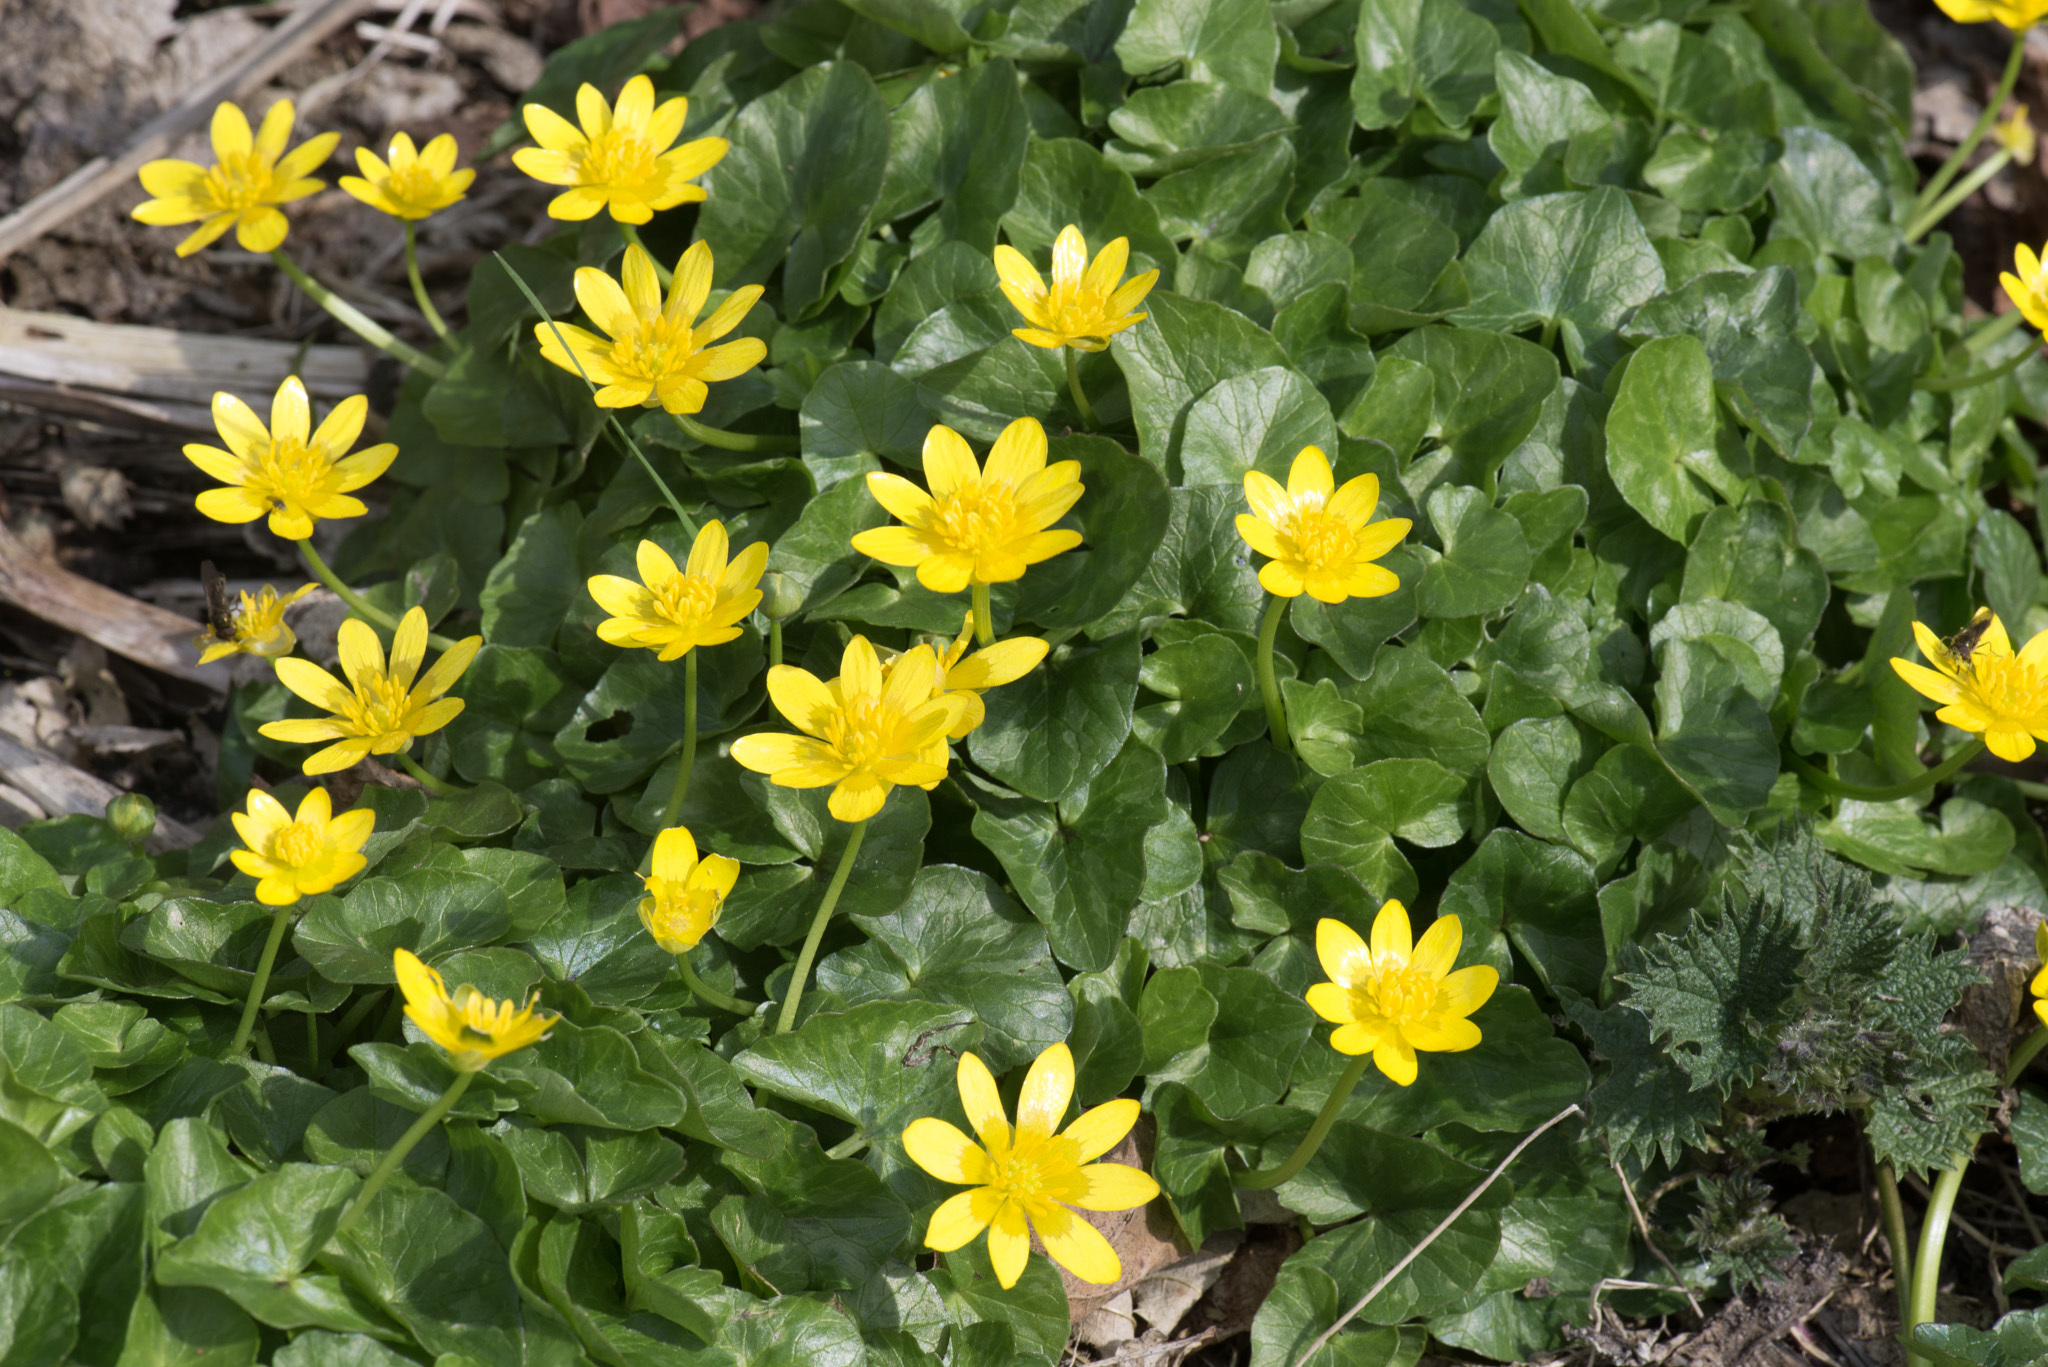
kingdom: Plantae
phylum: Tracheophyta
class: Magnoliopsida
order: Ranunculales
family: Ranunculaceae
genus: Ficaria
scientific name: Ficaria verna
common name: Lesser celandine
